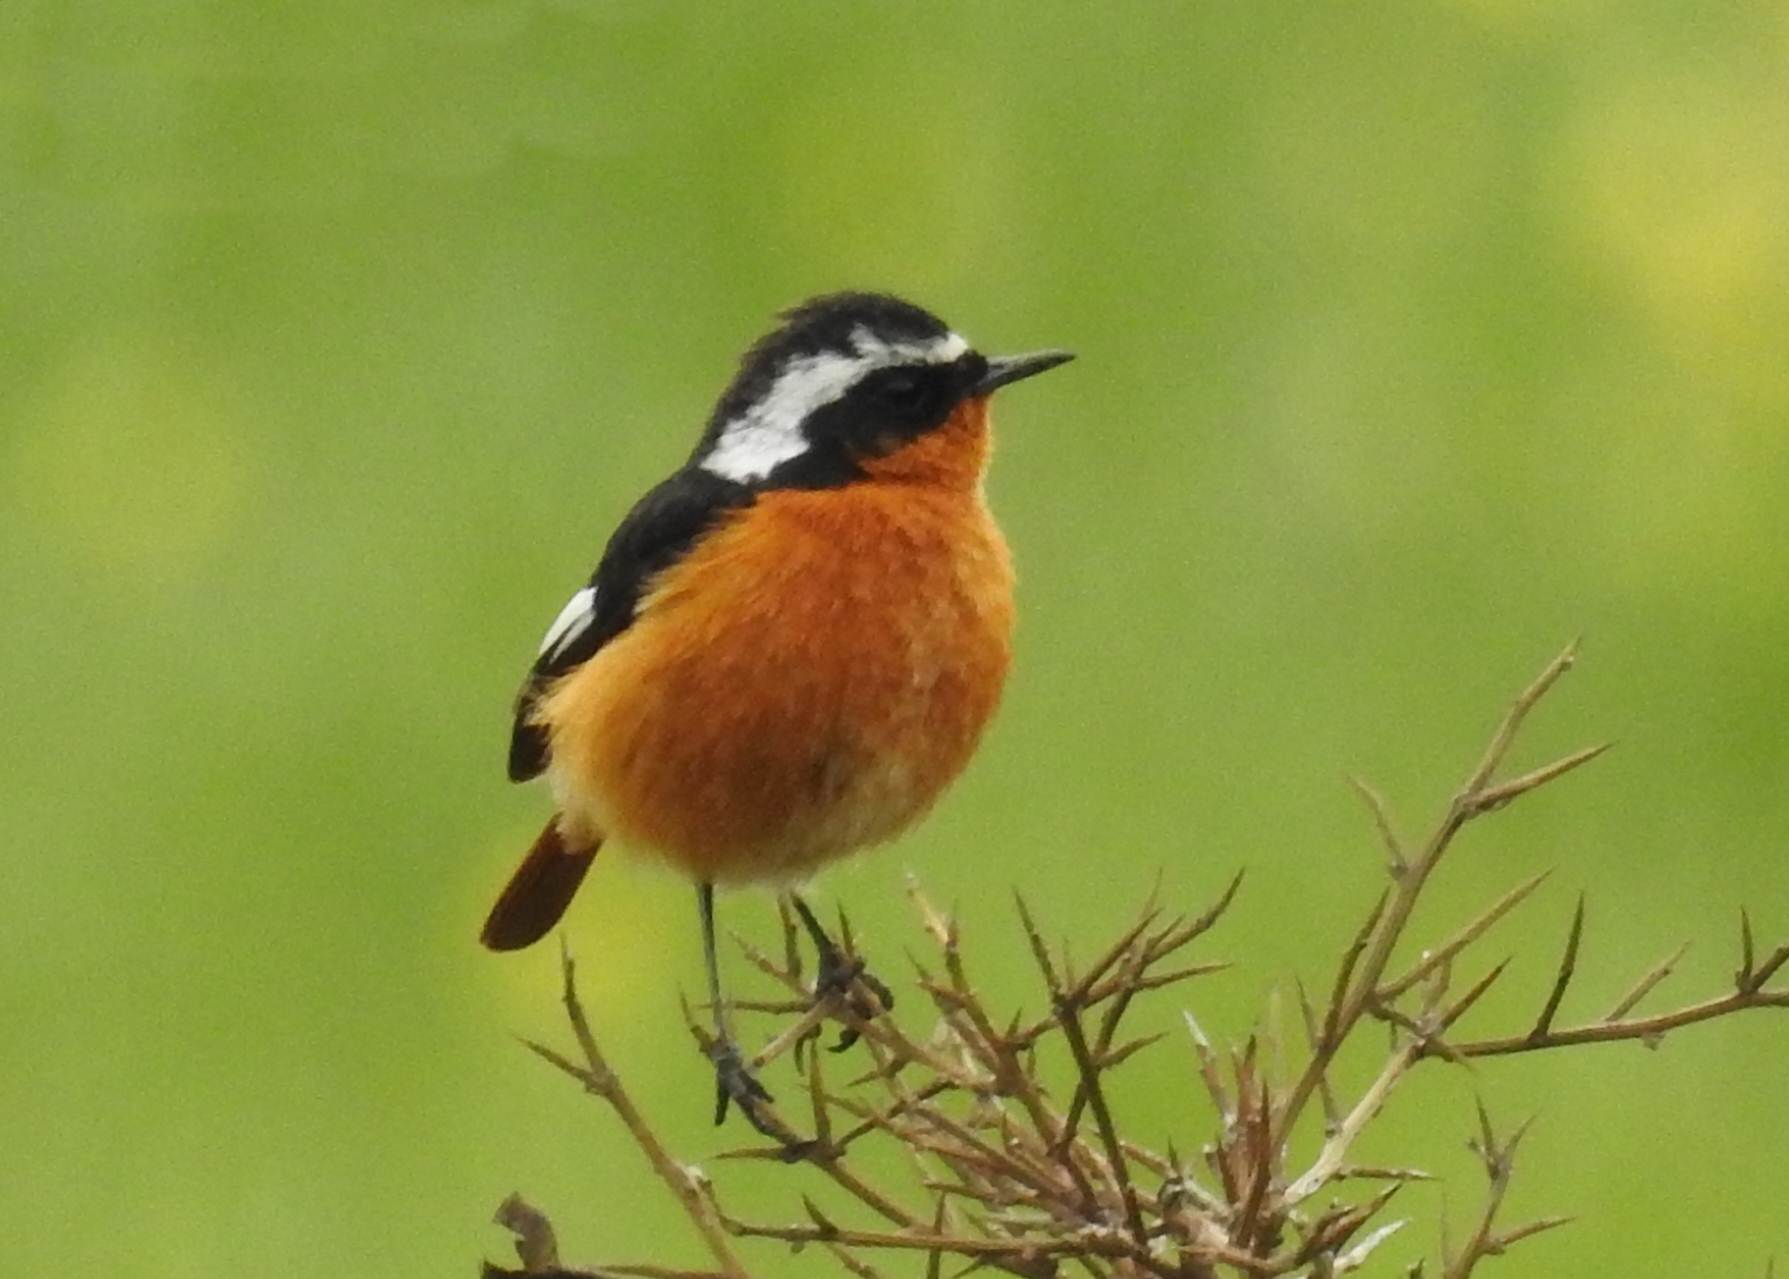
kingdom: Animalia
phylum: Chordata
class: Aves
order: Passeriformes
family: Muscicapidae
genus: Phoenicurus
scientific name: Phoenicurus moussieri
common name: Moussier's redstart
